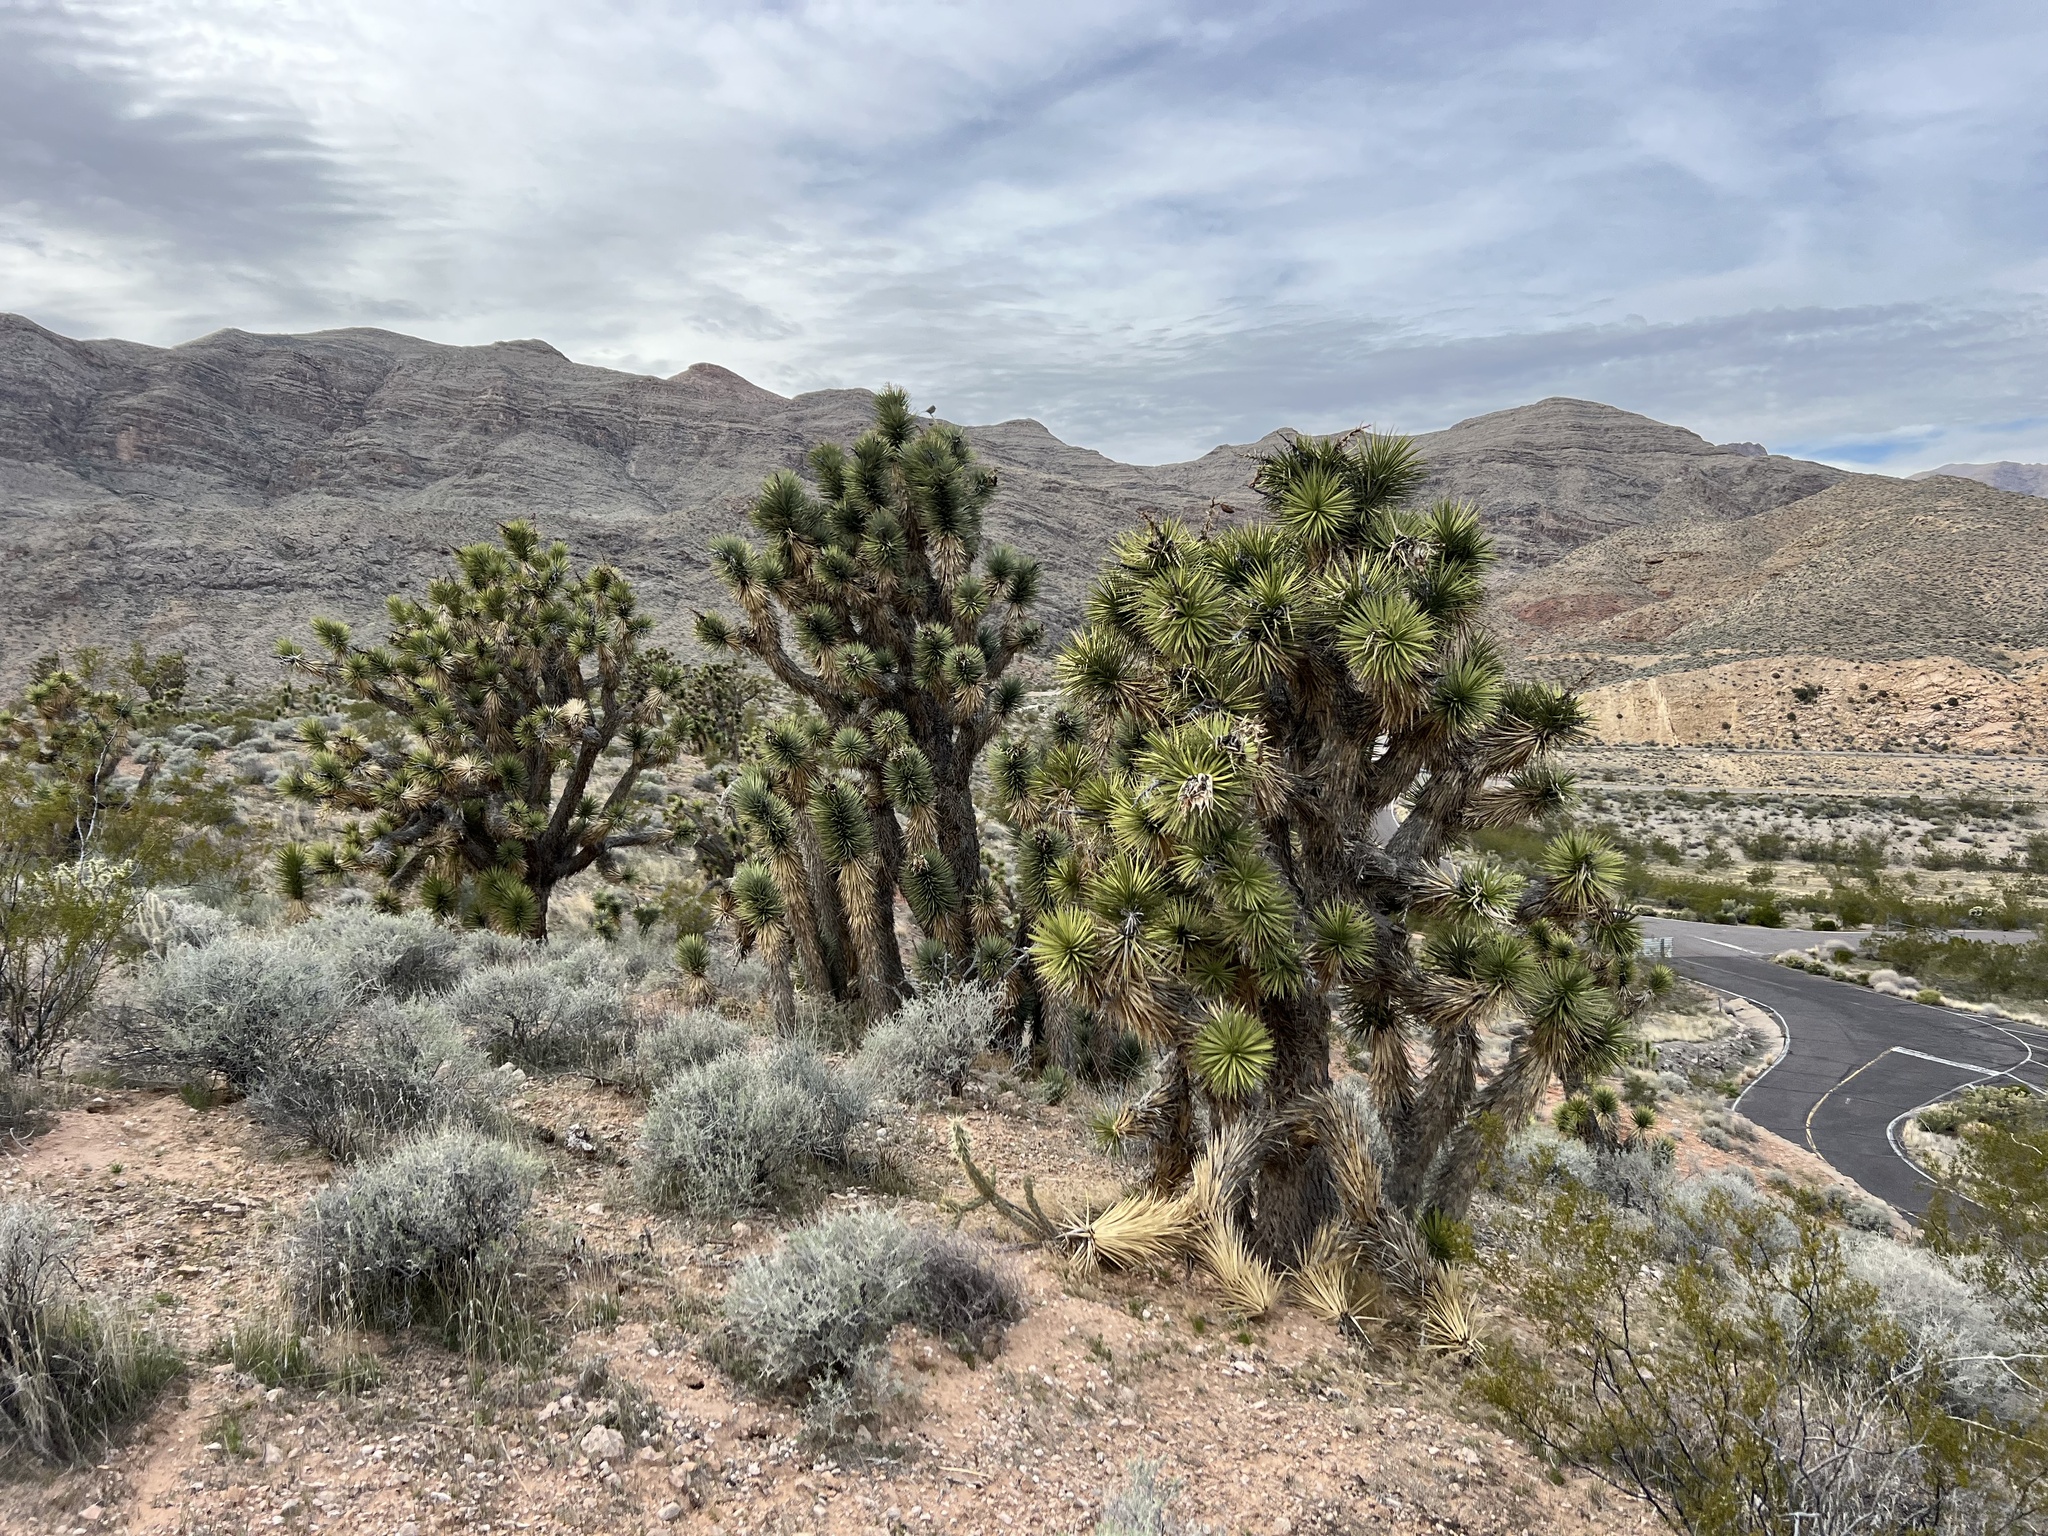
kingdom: Plantae
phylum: Tracheophyta
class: Liliopsida
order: Asparagales
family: Asparagaceae
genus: Yucca
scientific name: Yucca brevifolia
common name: Joshua tree
